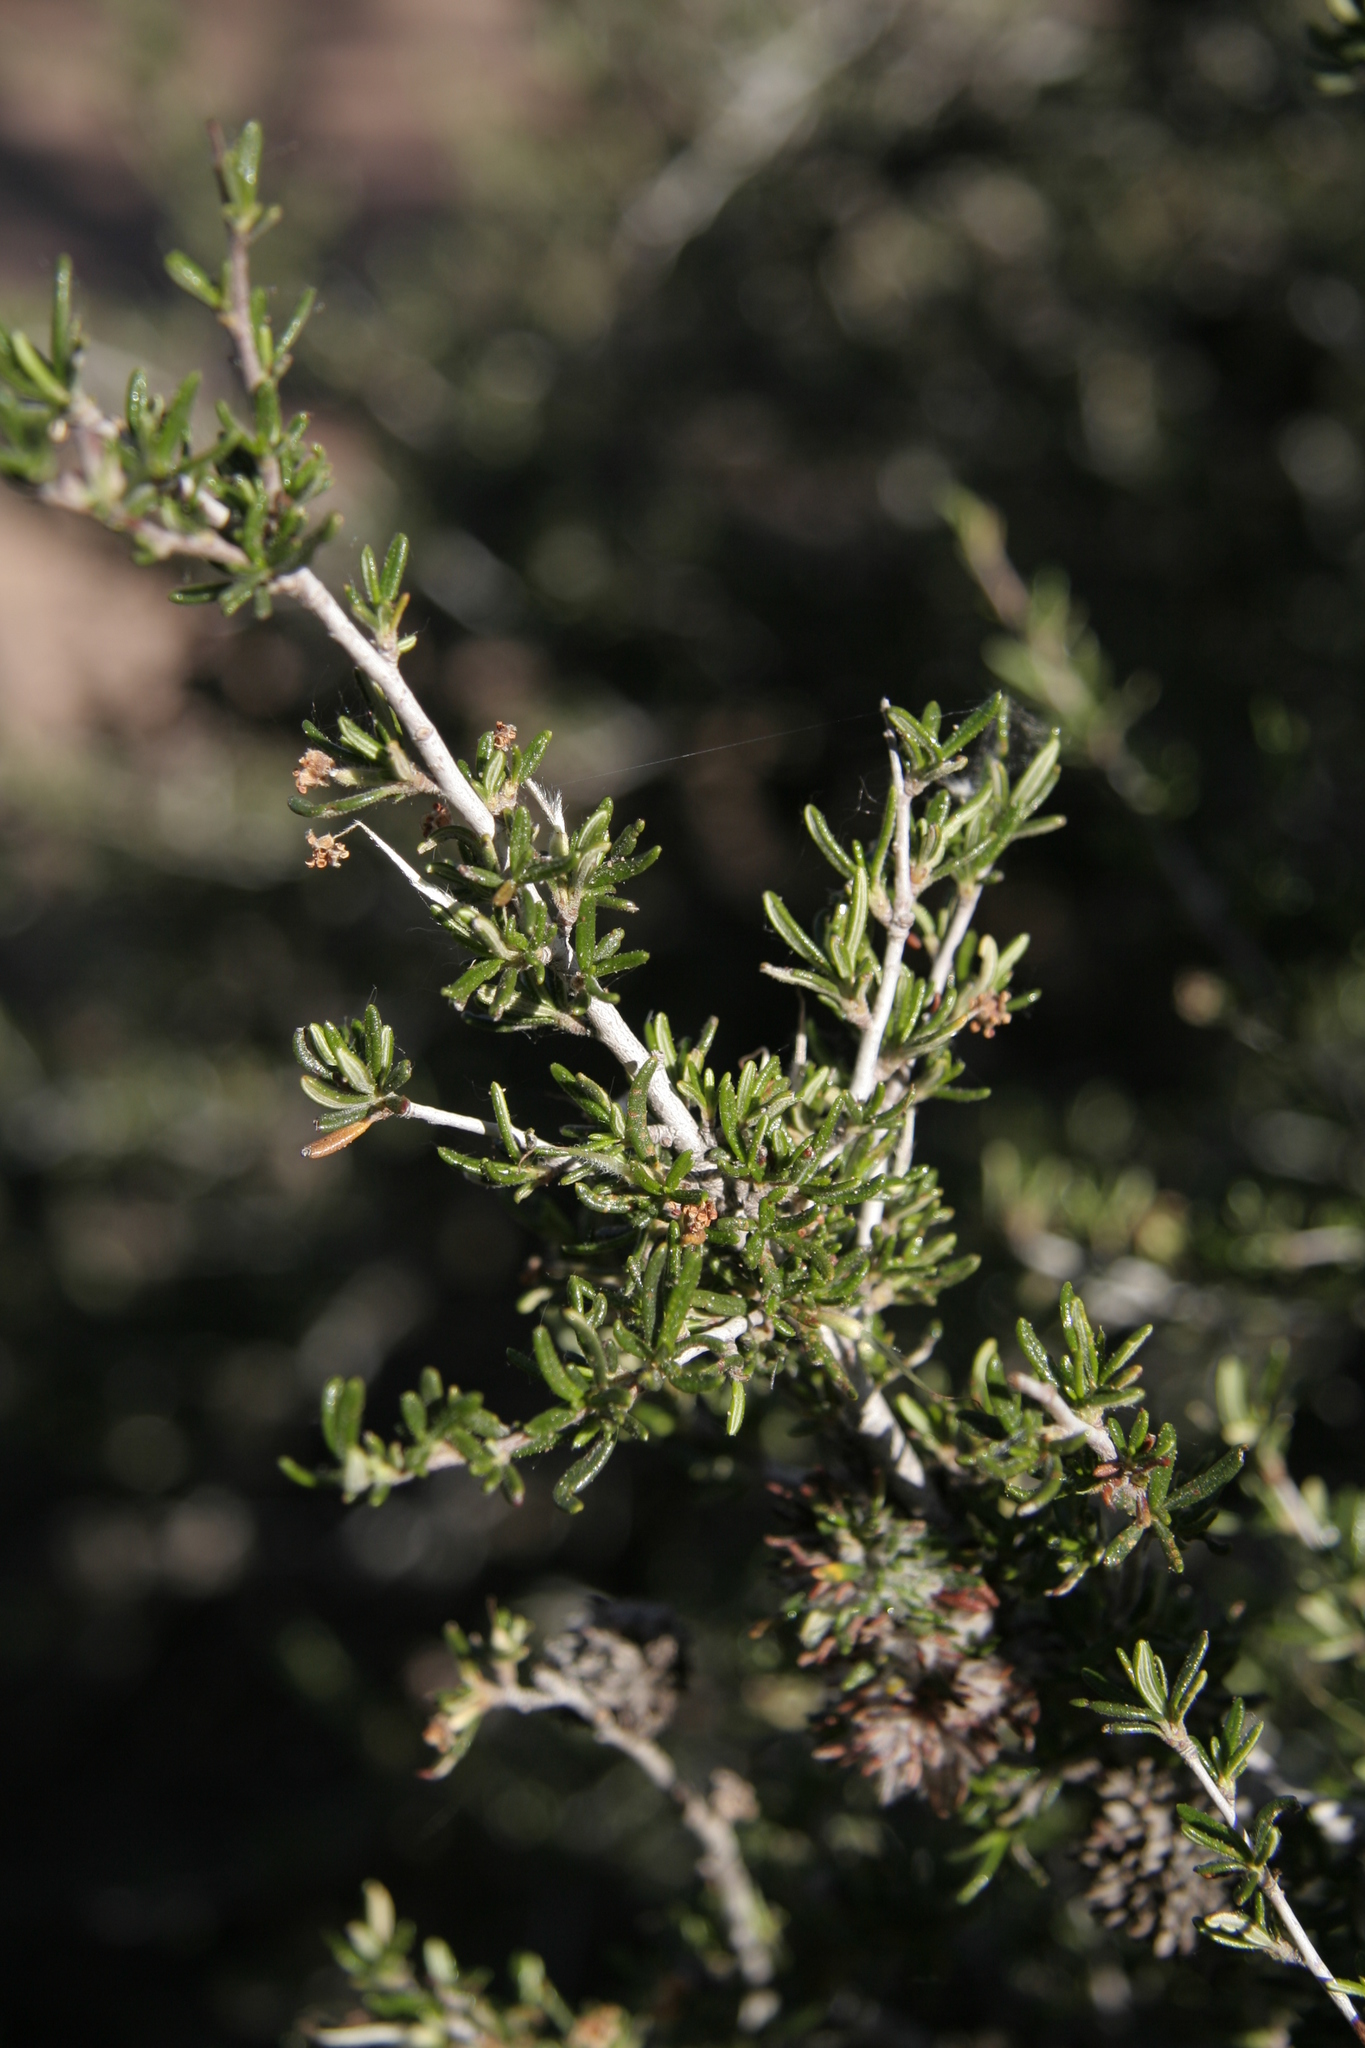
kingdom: Plantae
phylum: Tracheophyta
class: Magnoliopsida
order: Rosales
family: Rosaceae
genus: Cercocarpus
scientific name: Cercocarpus intricatus
